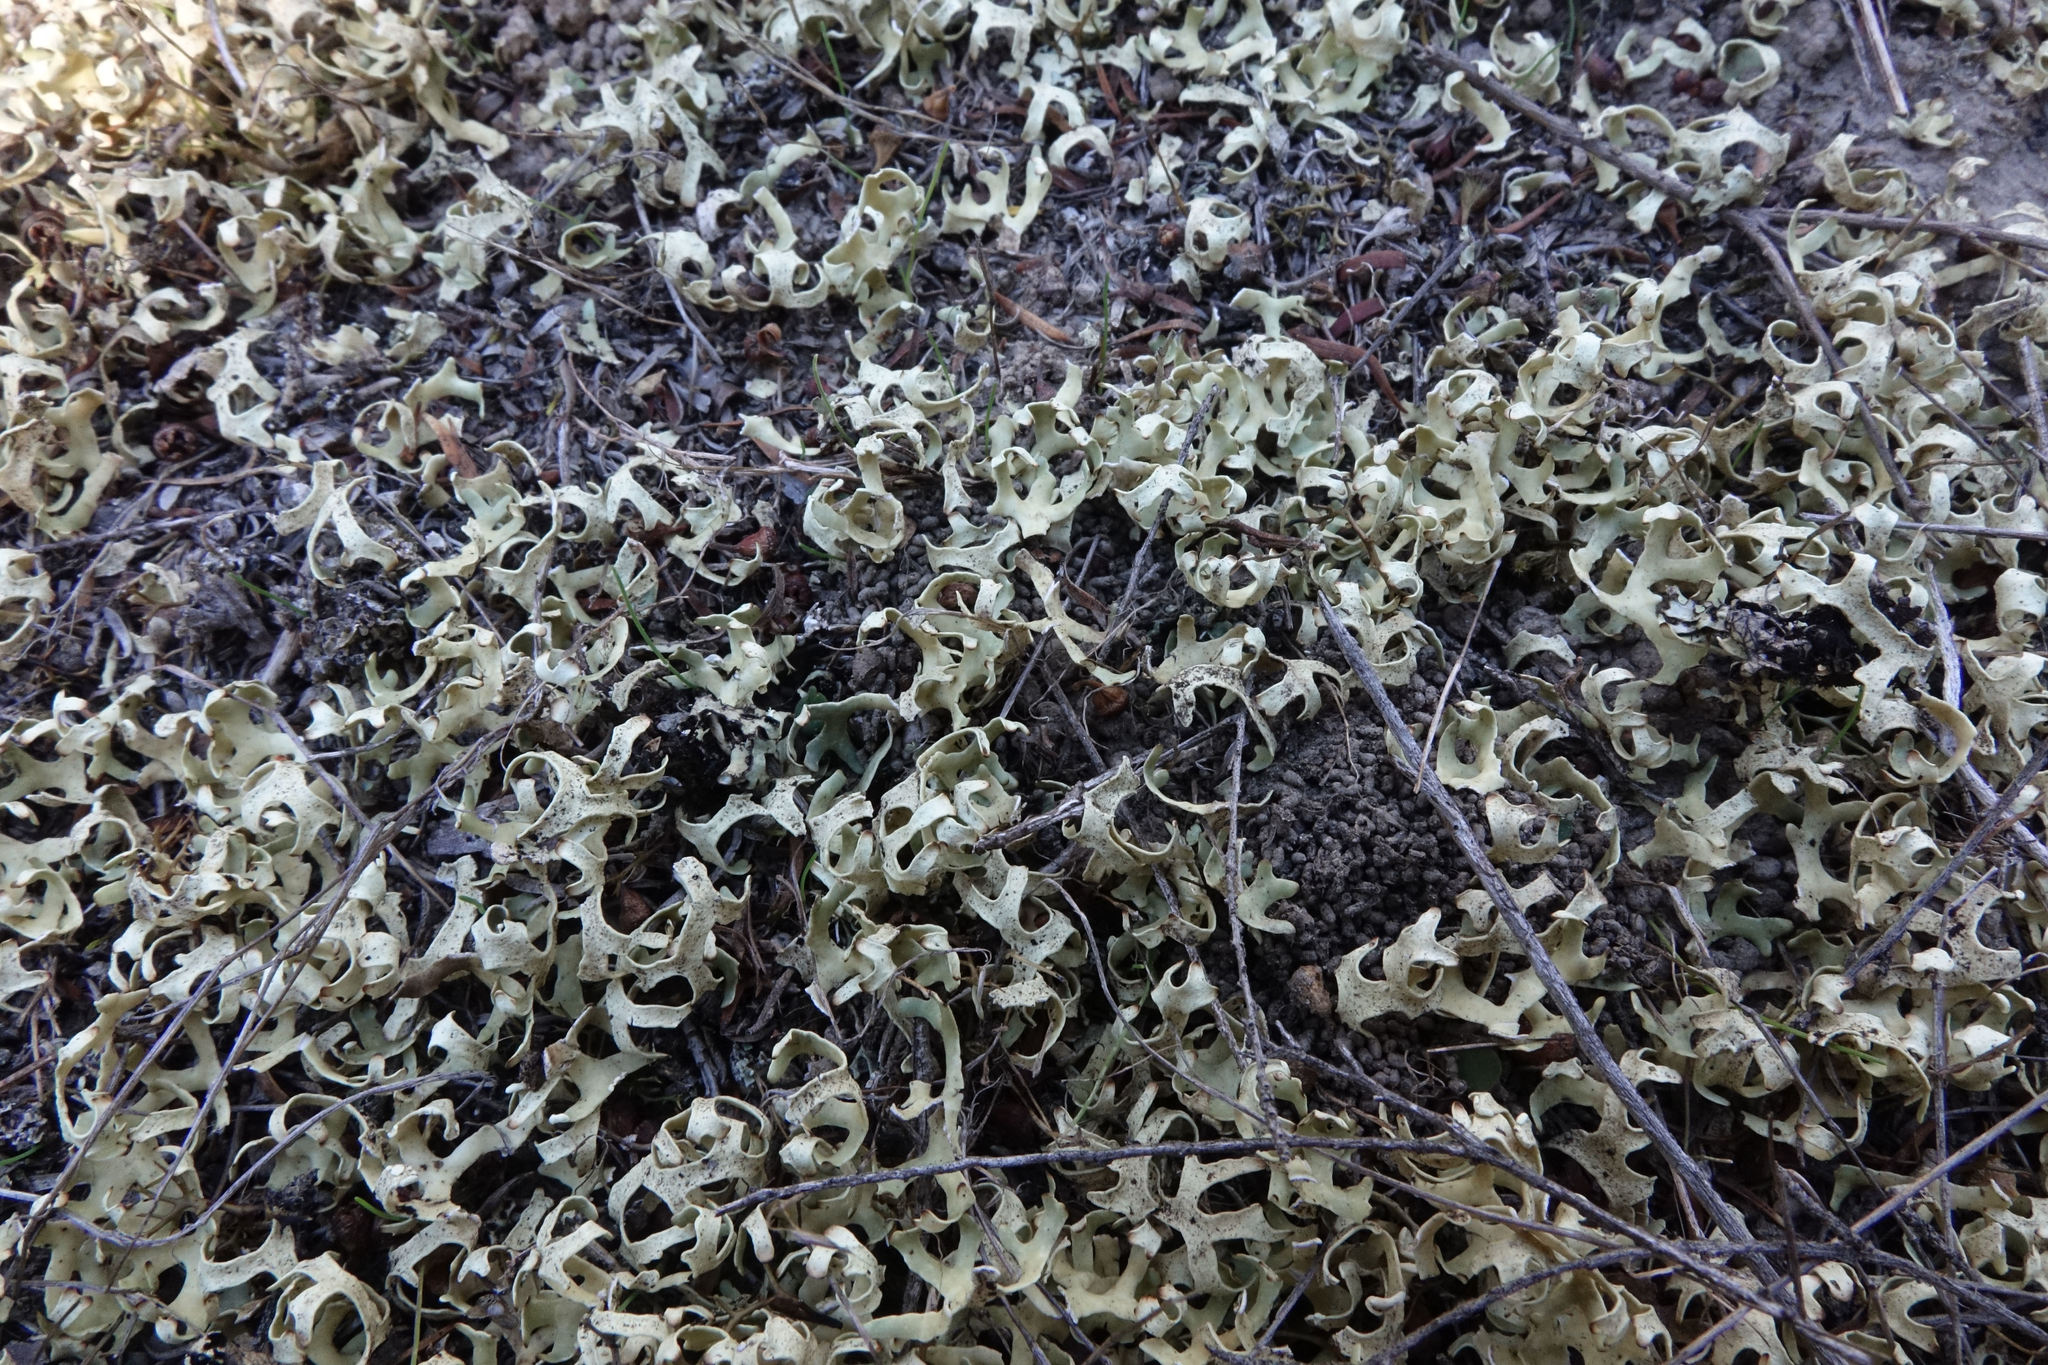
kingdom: Fungi
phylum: Ascomycota
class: Lecanoromycetes
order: Lecanorales
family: Parmeliaceae
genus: Xanthoparmelia
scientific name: Xanthoparmelia semiviridis
